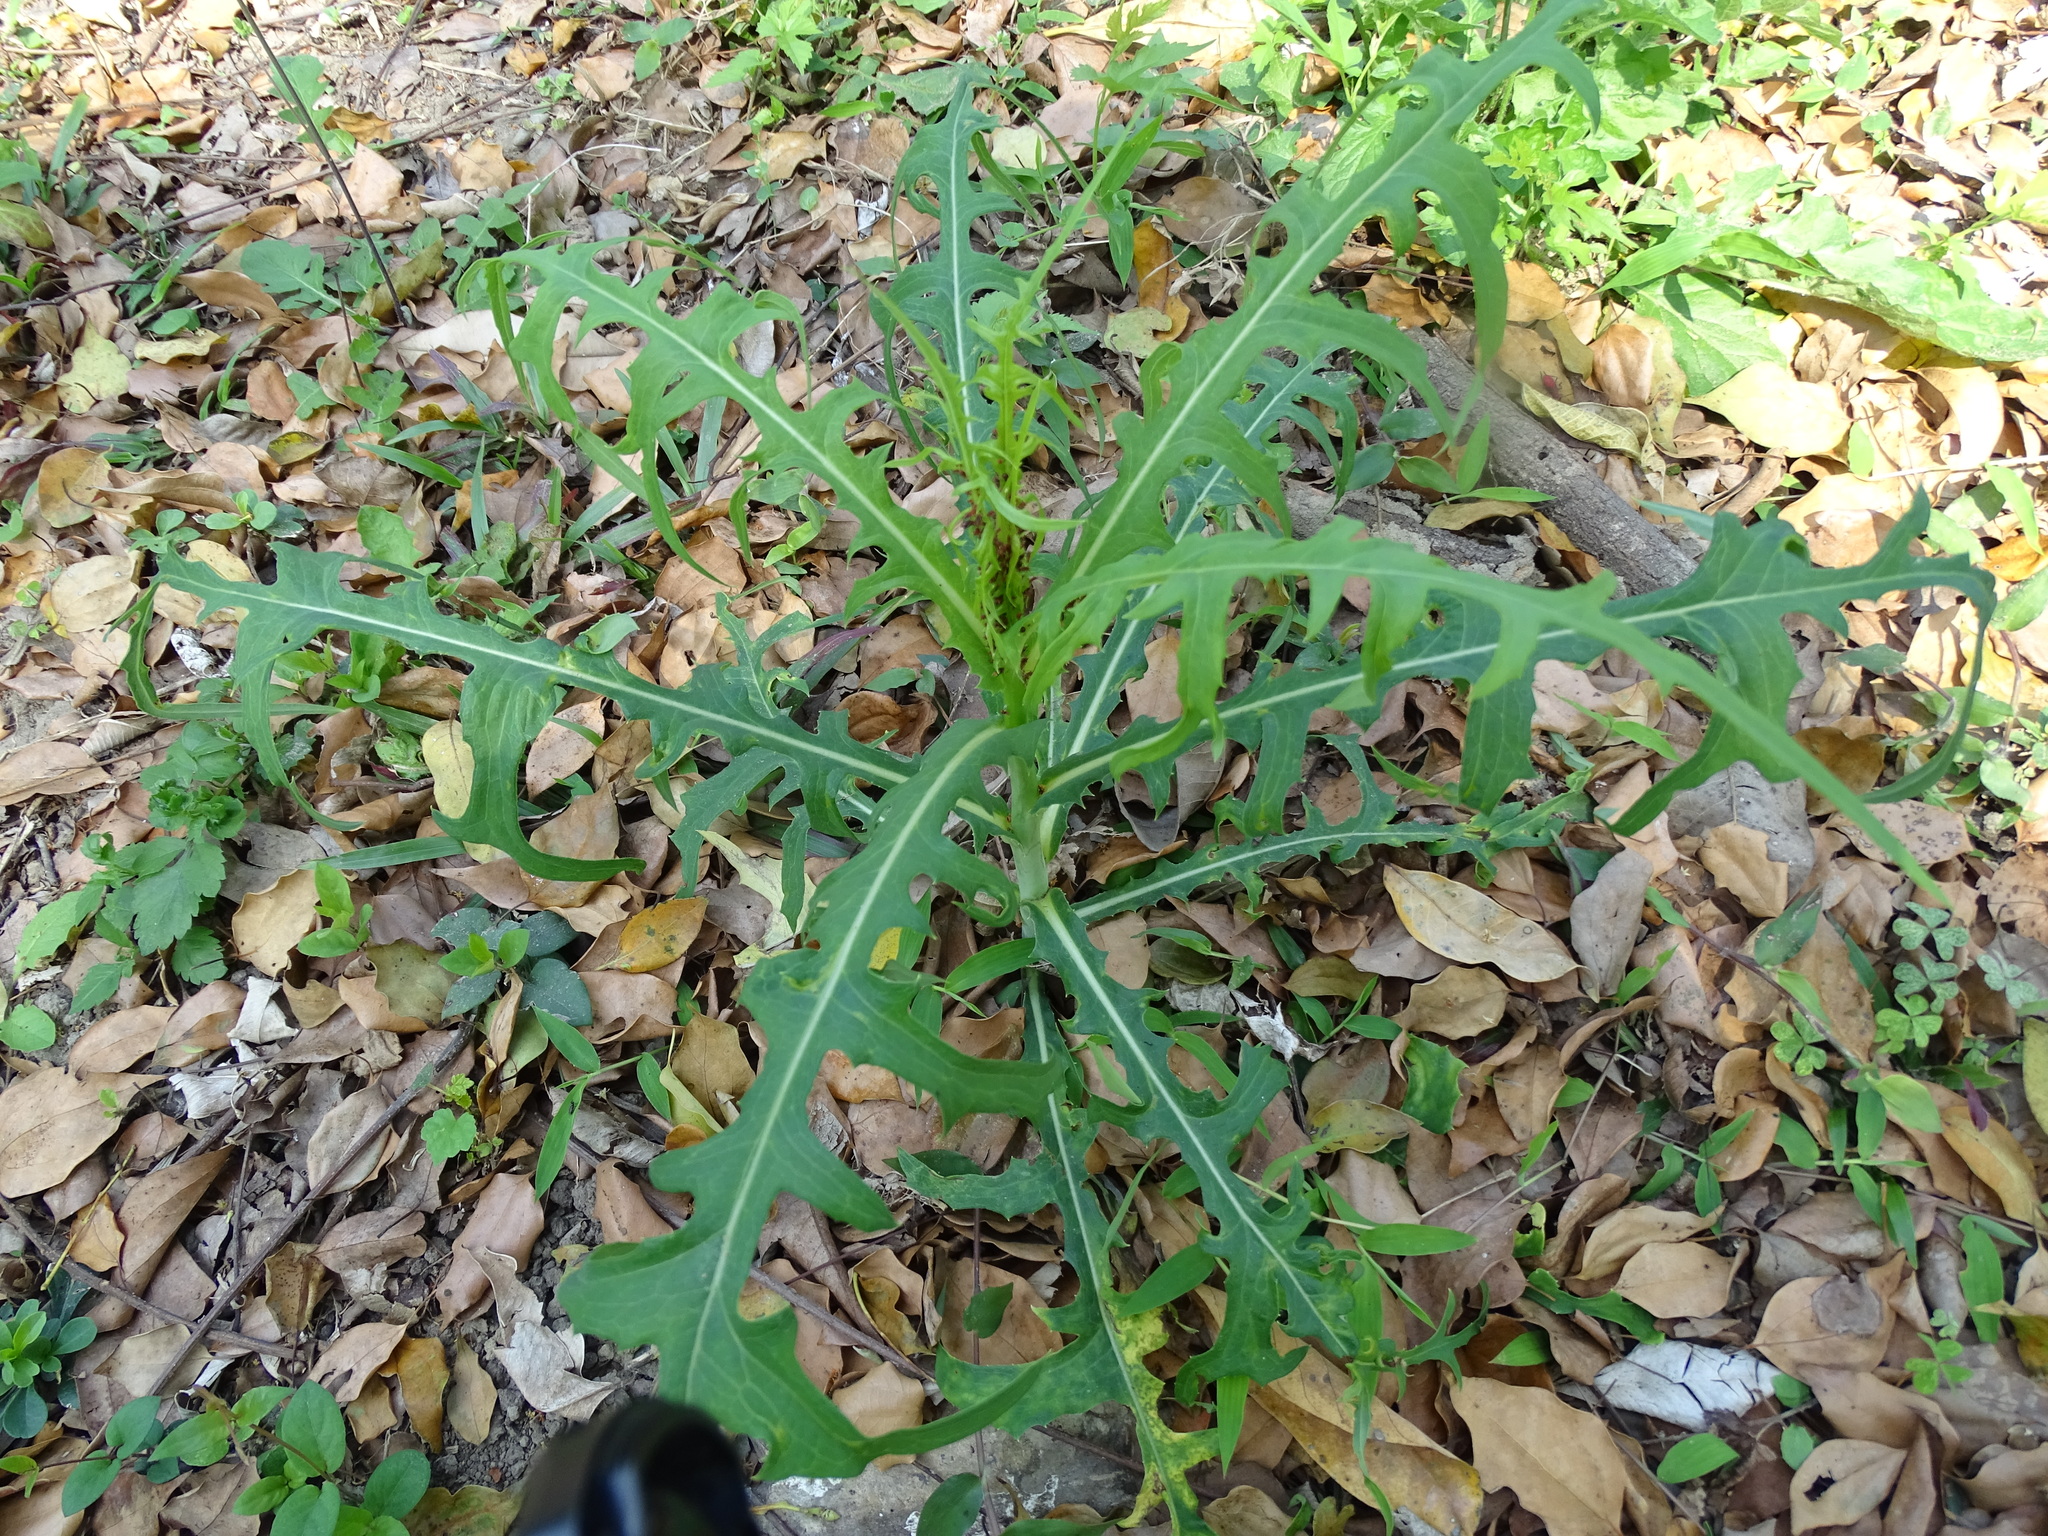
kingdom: Plantae
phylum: Tracheophyta
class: Magnoliopsida
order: Asterales
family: Asteraceae
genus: Lactuca
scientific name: Lactuca indica
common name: Wild lettuce
